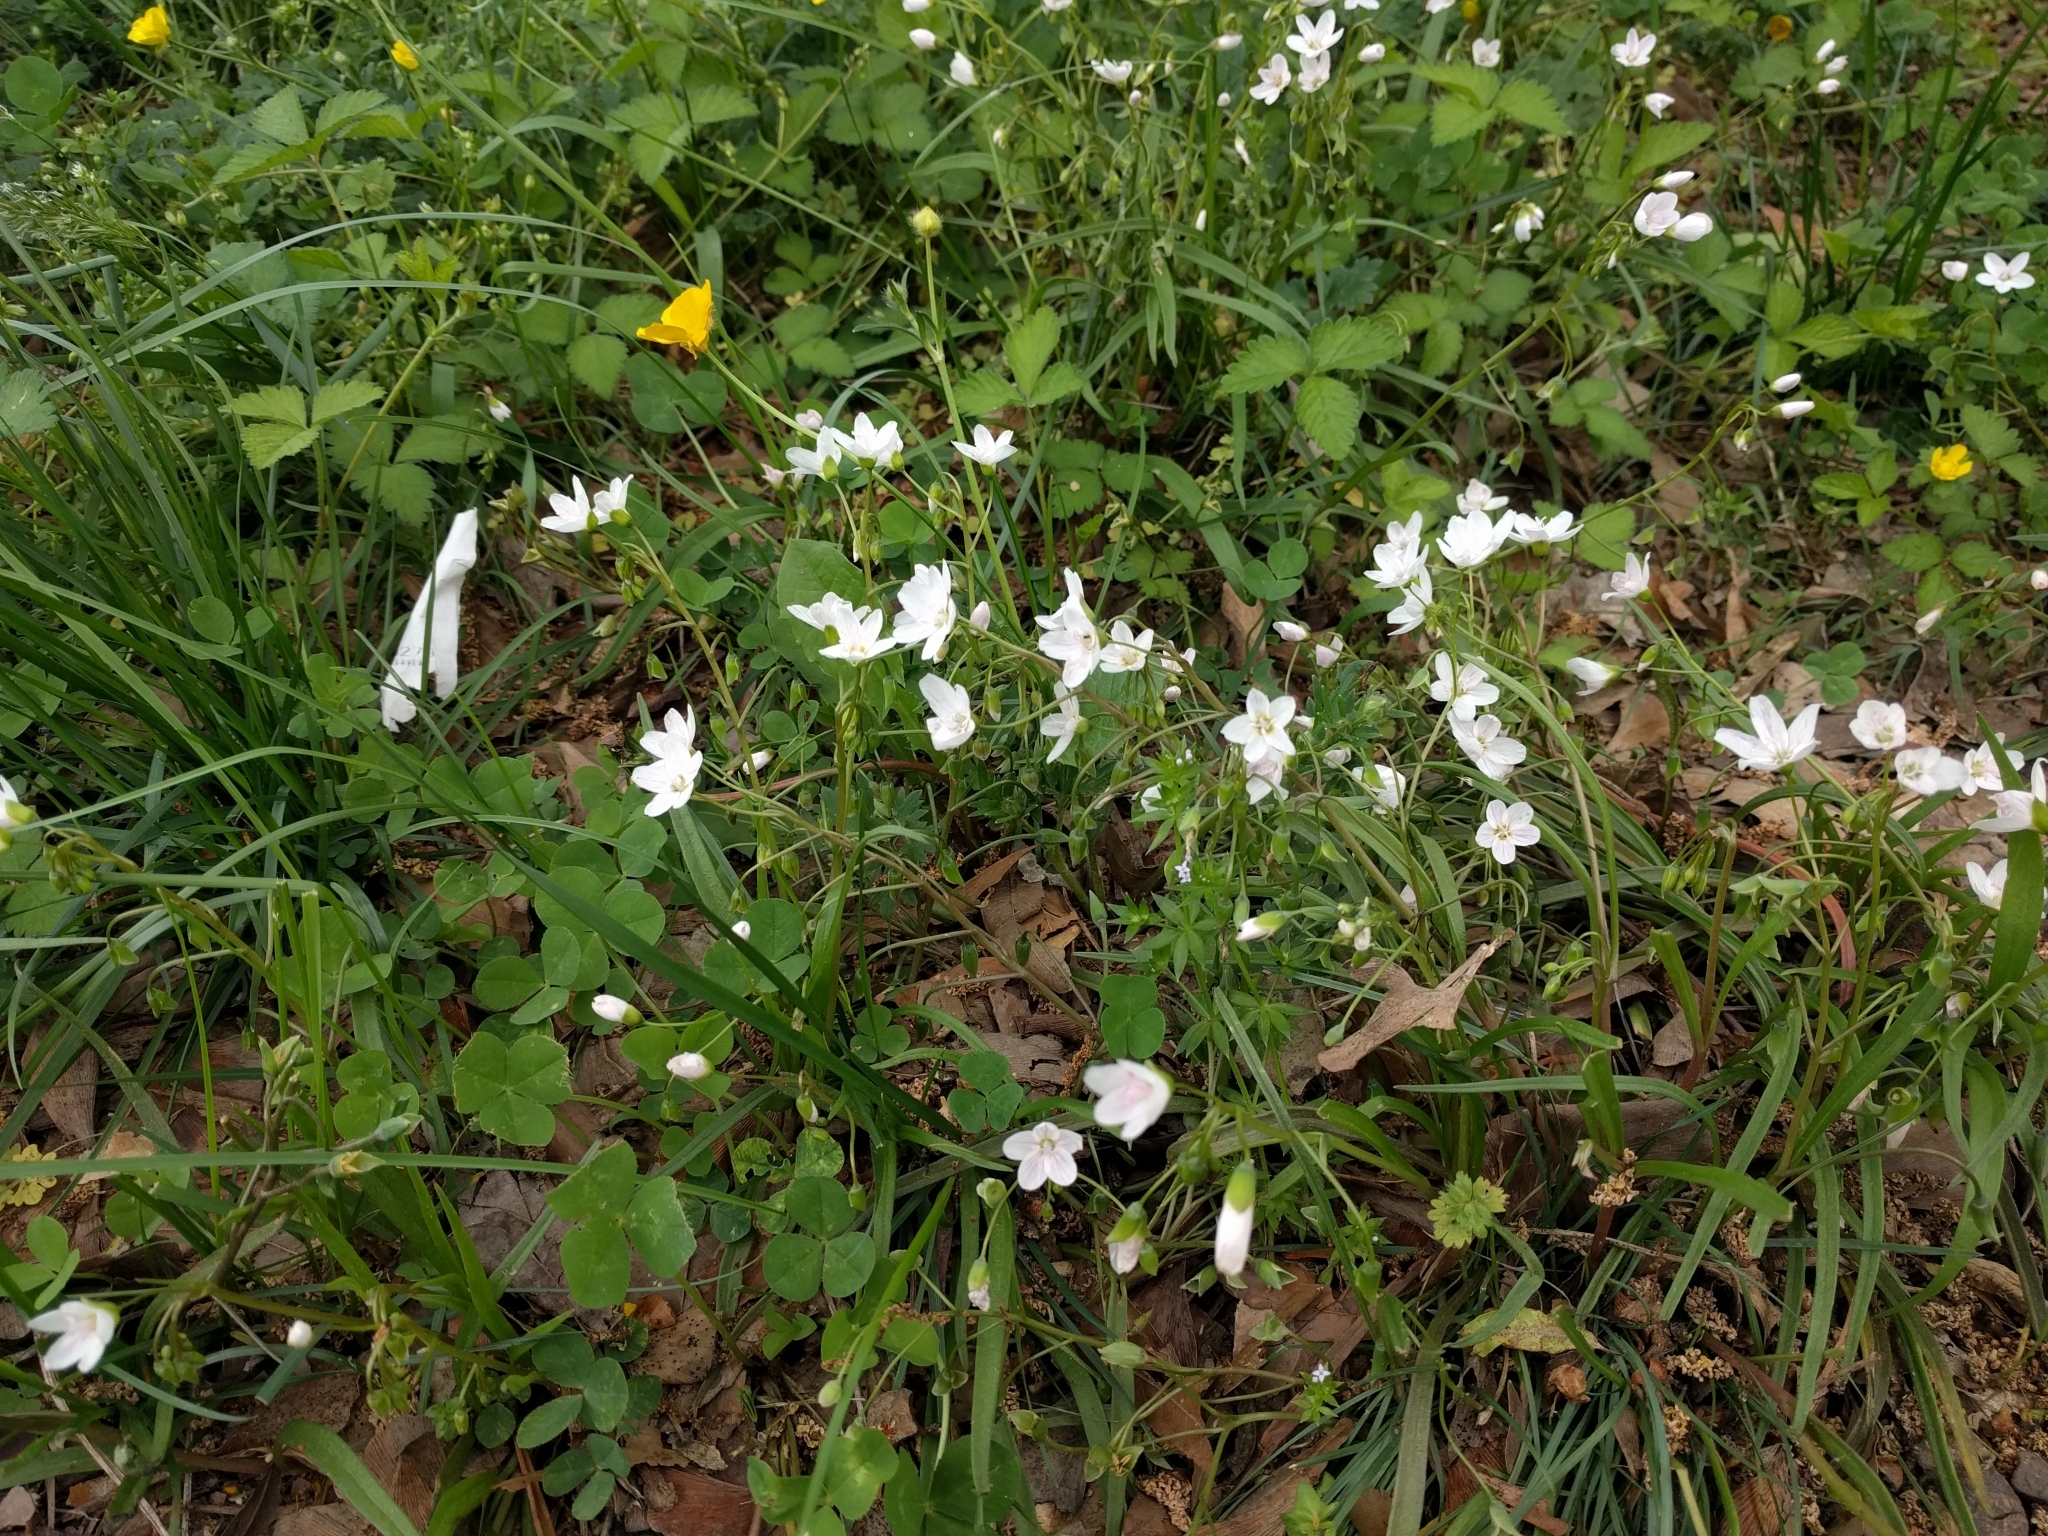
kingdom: Plantae
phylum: Tracheophyta
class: Magnoliopsida
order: Caryophyllales
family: Montiaceae
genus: Claytonia
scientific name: Claytonia virginica
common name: Virginia springbeauty
